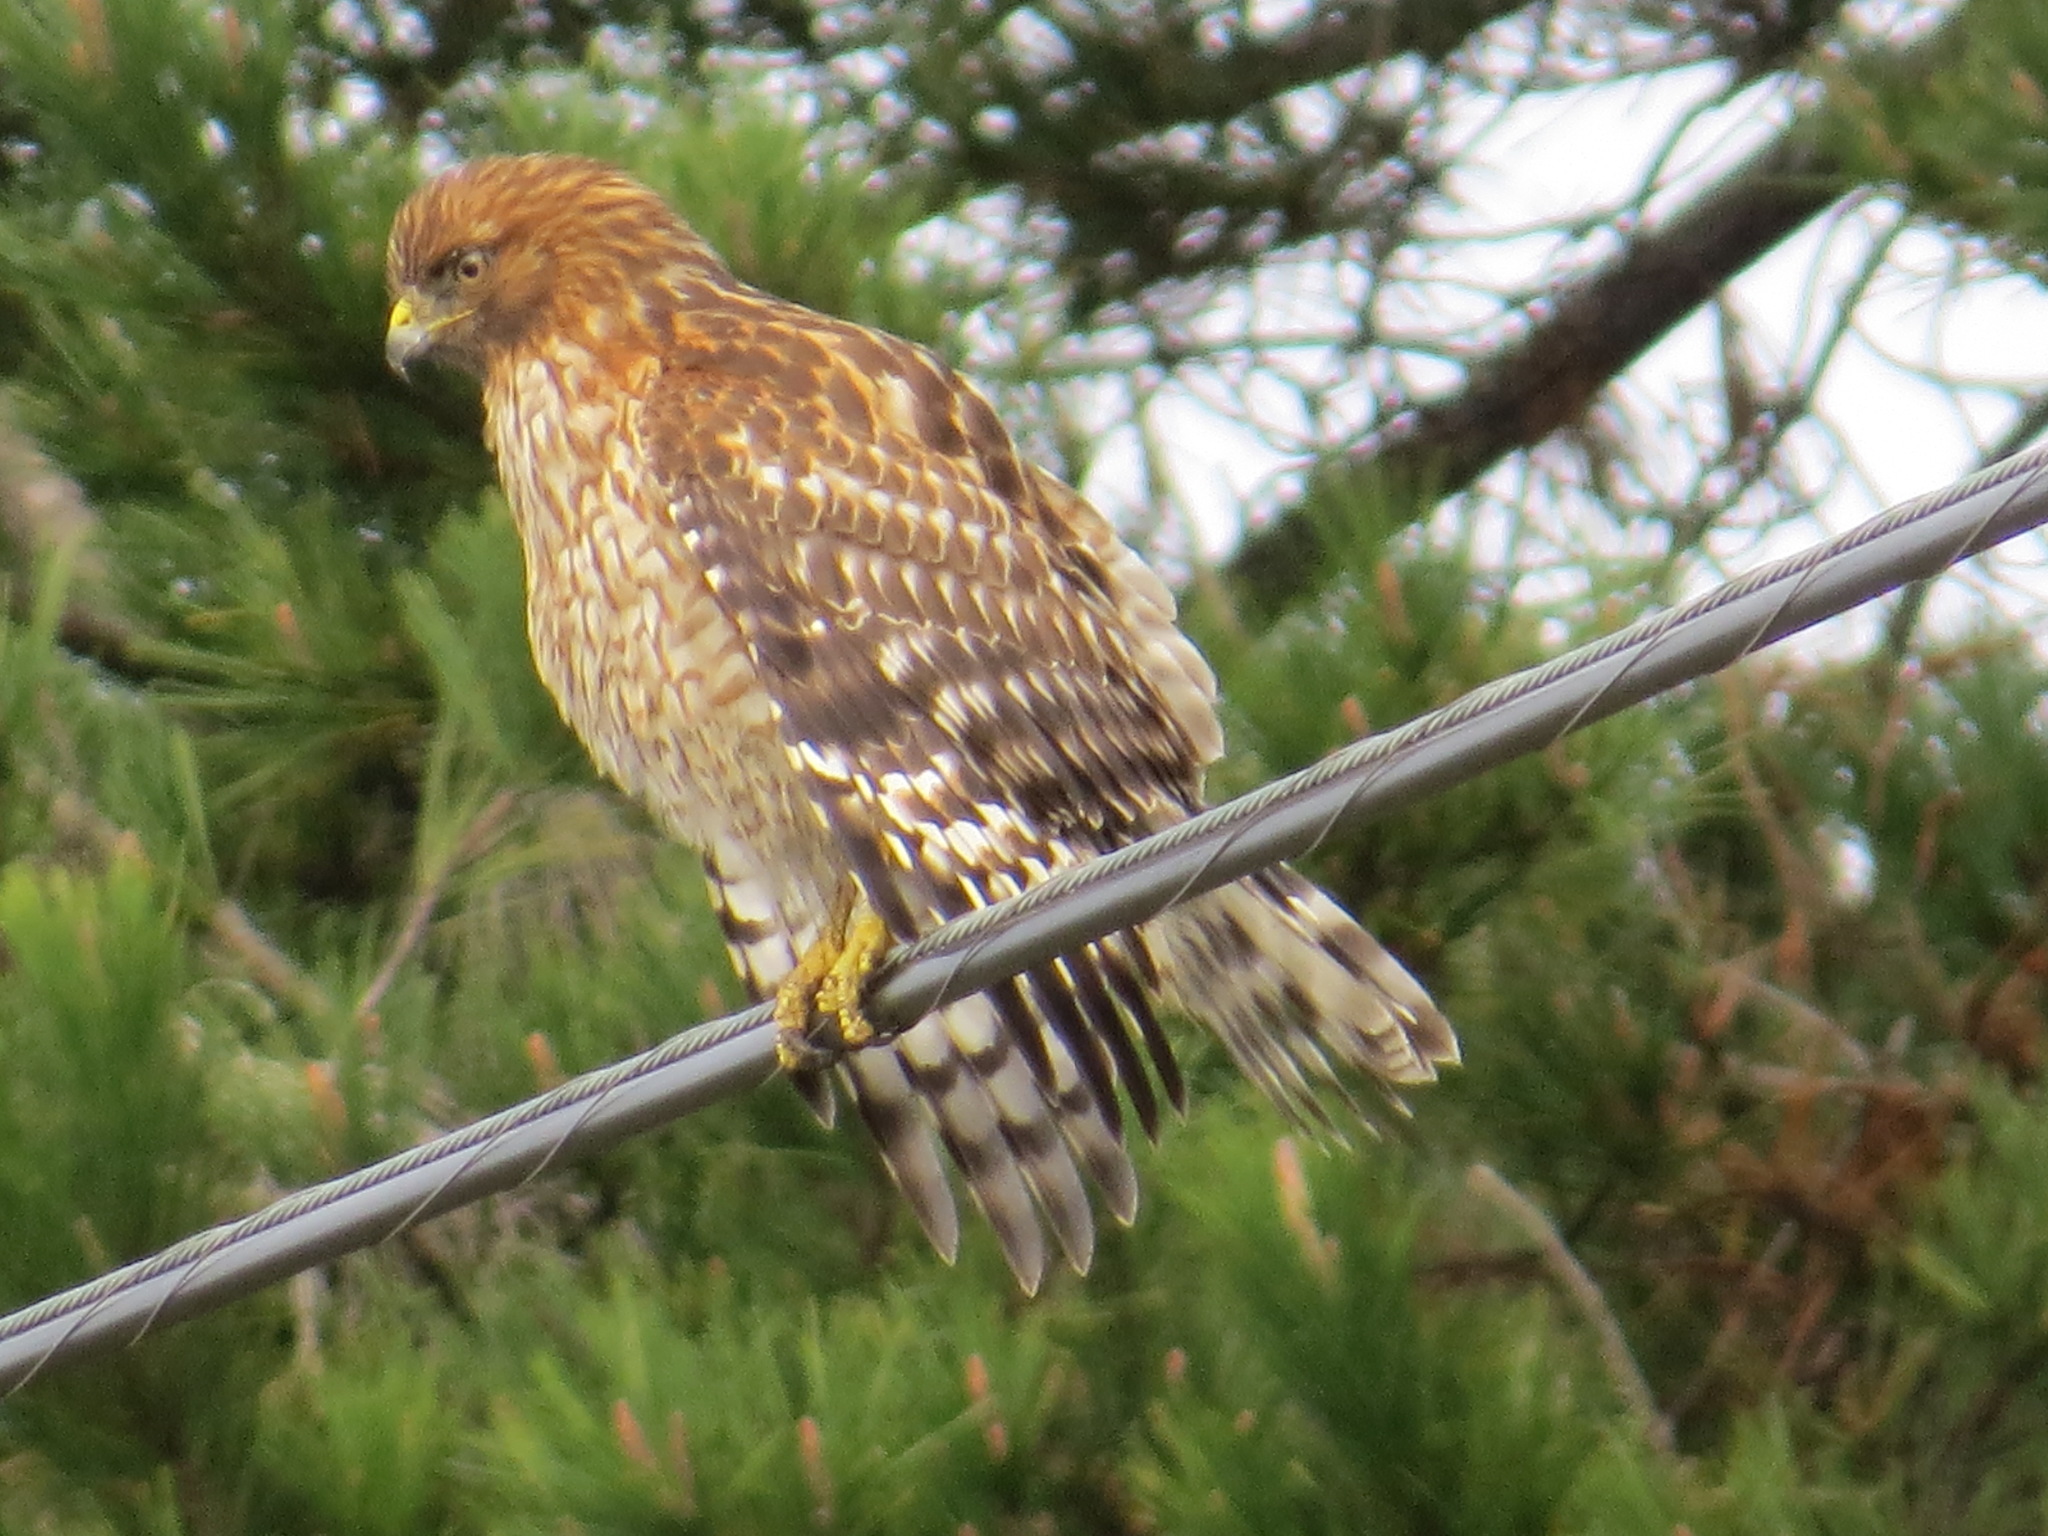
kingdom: Animalia
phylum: Chordata
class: Aves
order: Accipitriformes
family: Accipitridae
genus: Buteo
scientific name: Buteo lineatus
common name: Red-shouldered hawk
